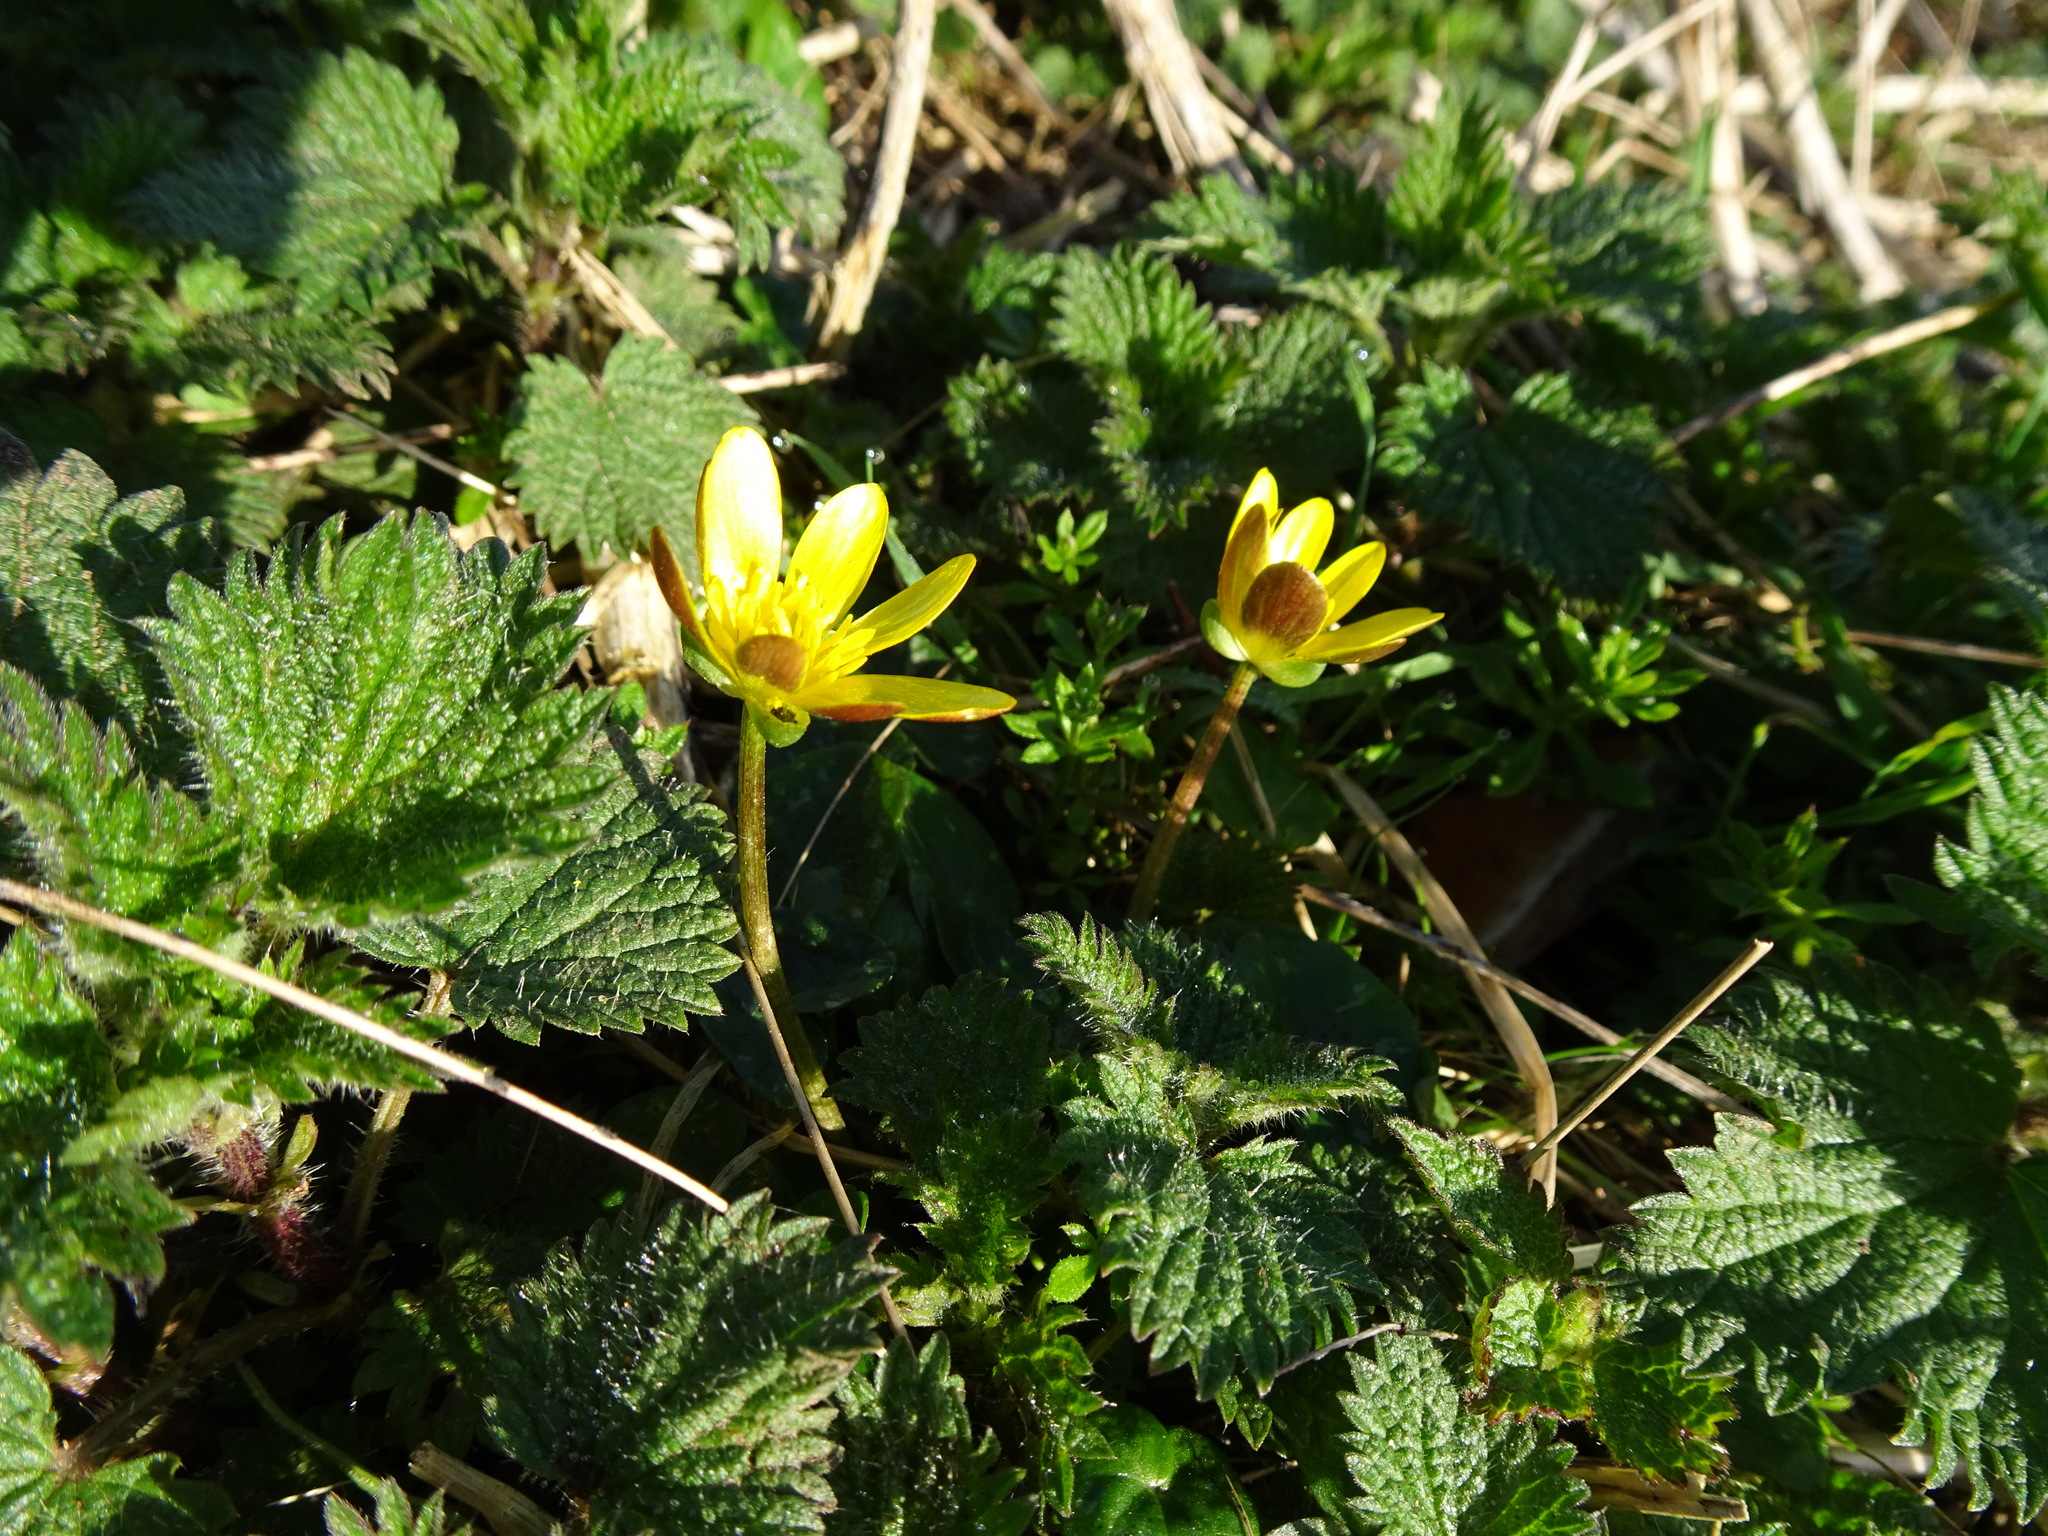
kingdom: Plantae
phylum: Tracheophyta
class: Magnoliopsida
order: Ranunculales
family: Ranunculaceae
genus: Ficaria
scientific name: Ficaria verna
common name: Lesser celandine
